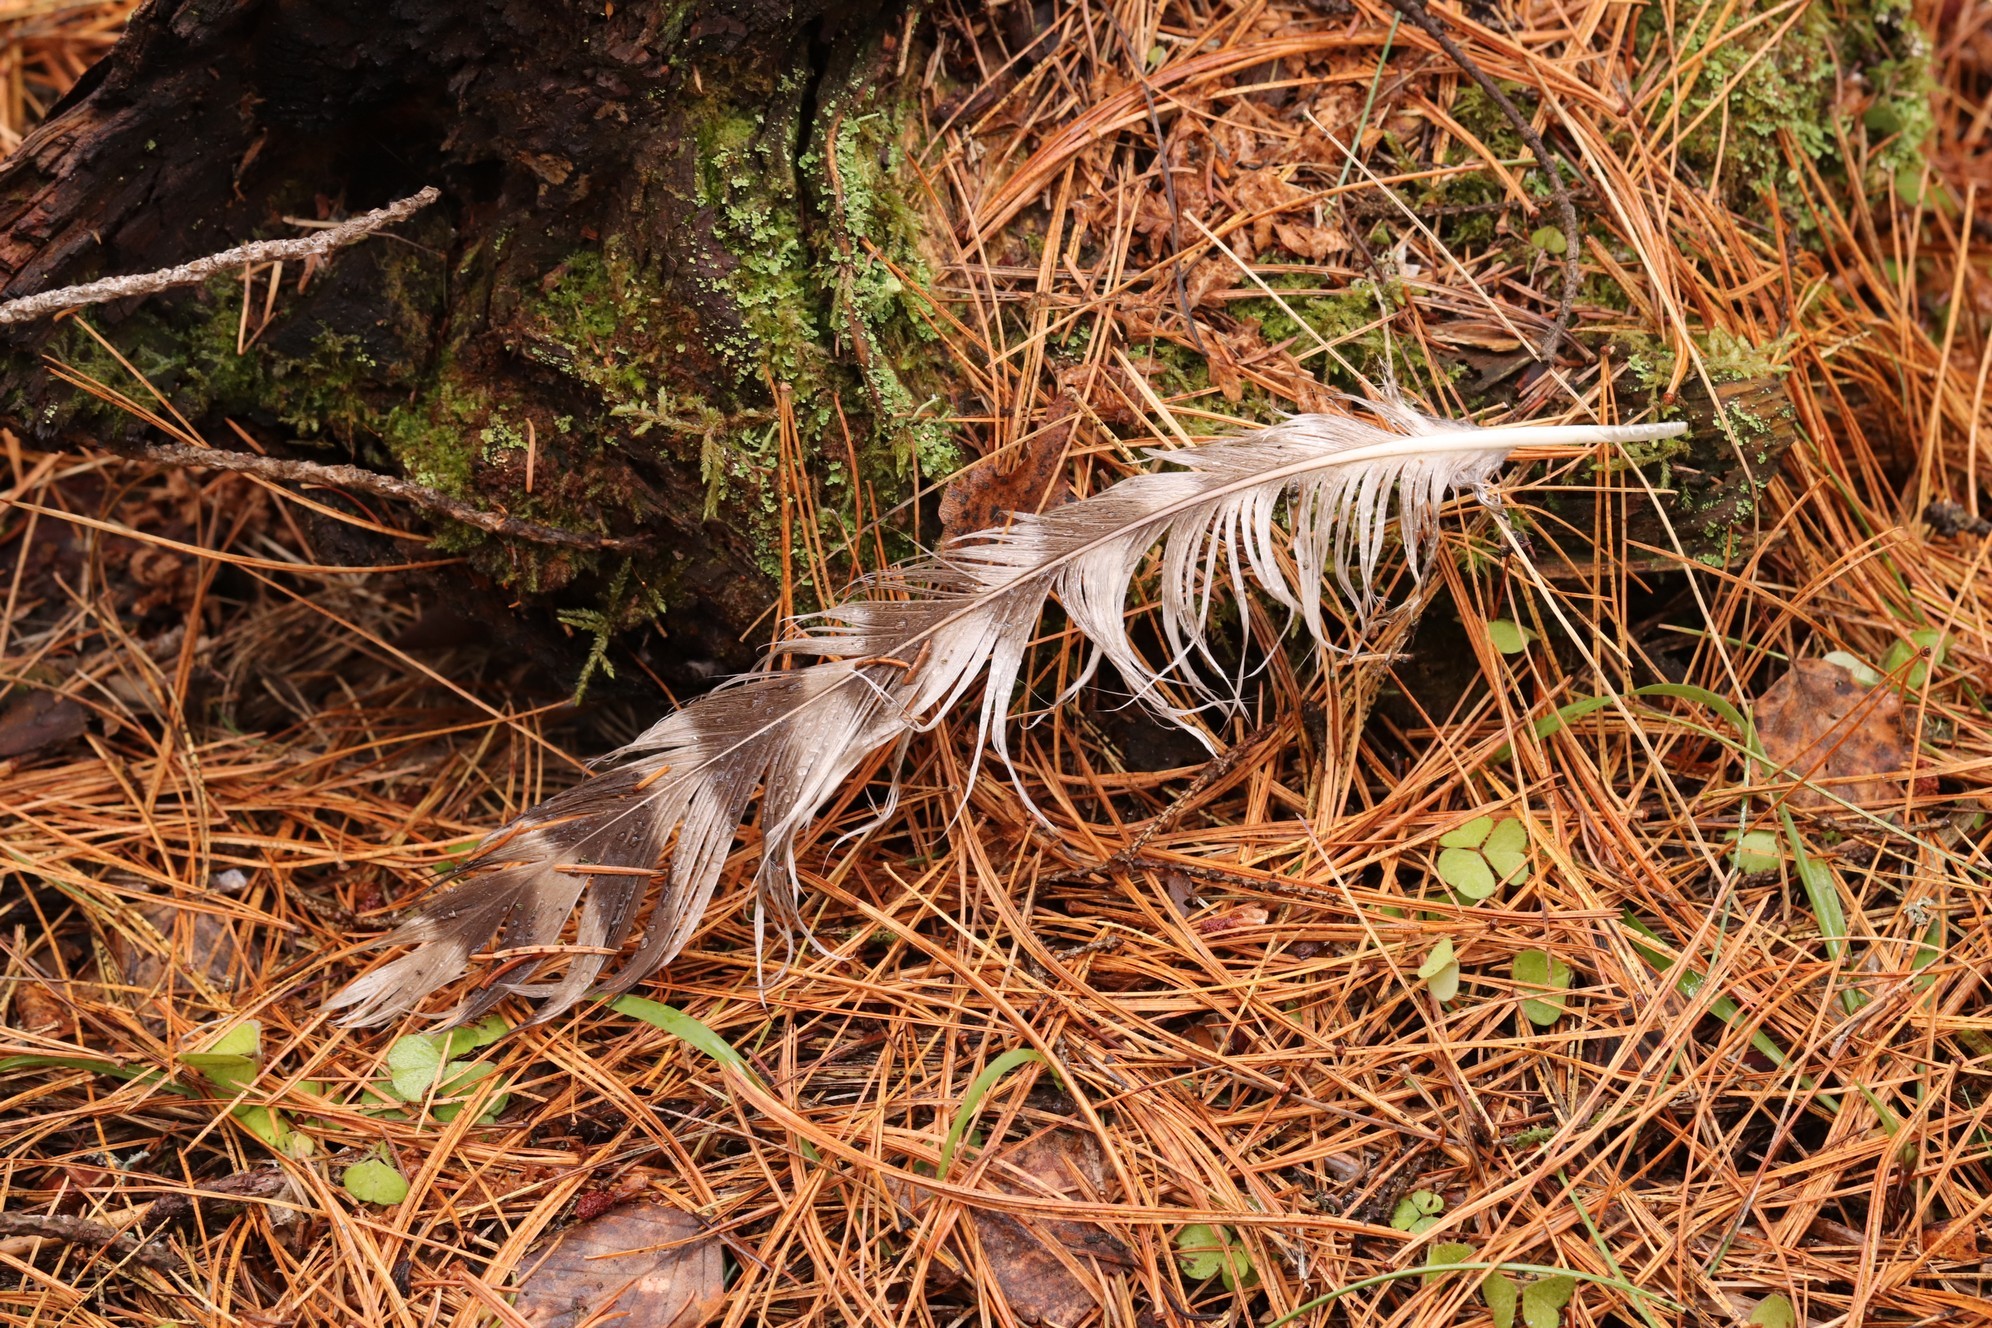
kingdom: Animalia
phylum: Chordata
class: Aves
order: Strigiformes
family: Strigidae
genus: Strix
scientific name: Strix uralensis
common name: Ural owl
